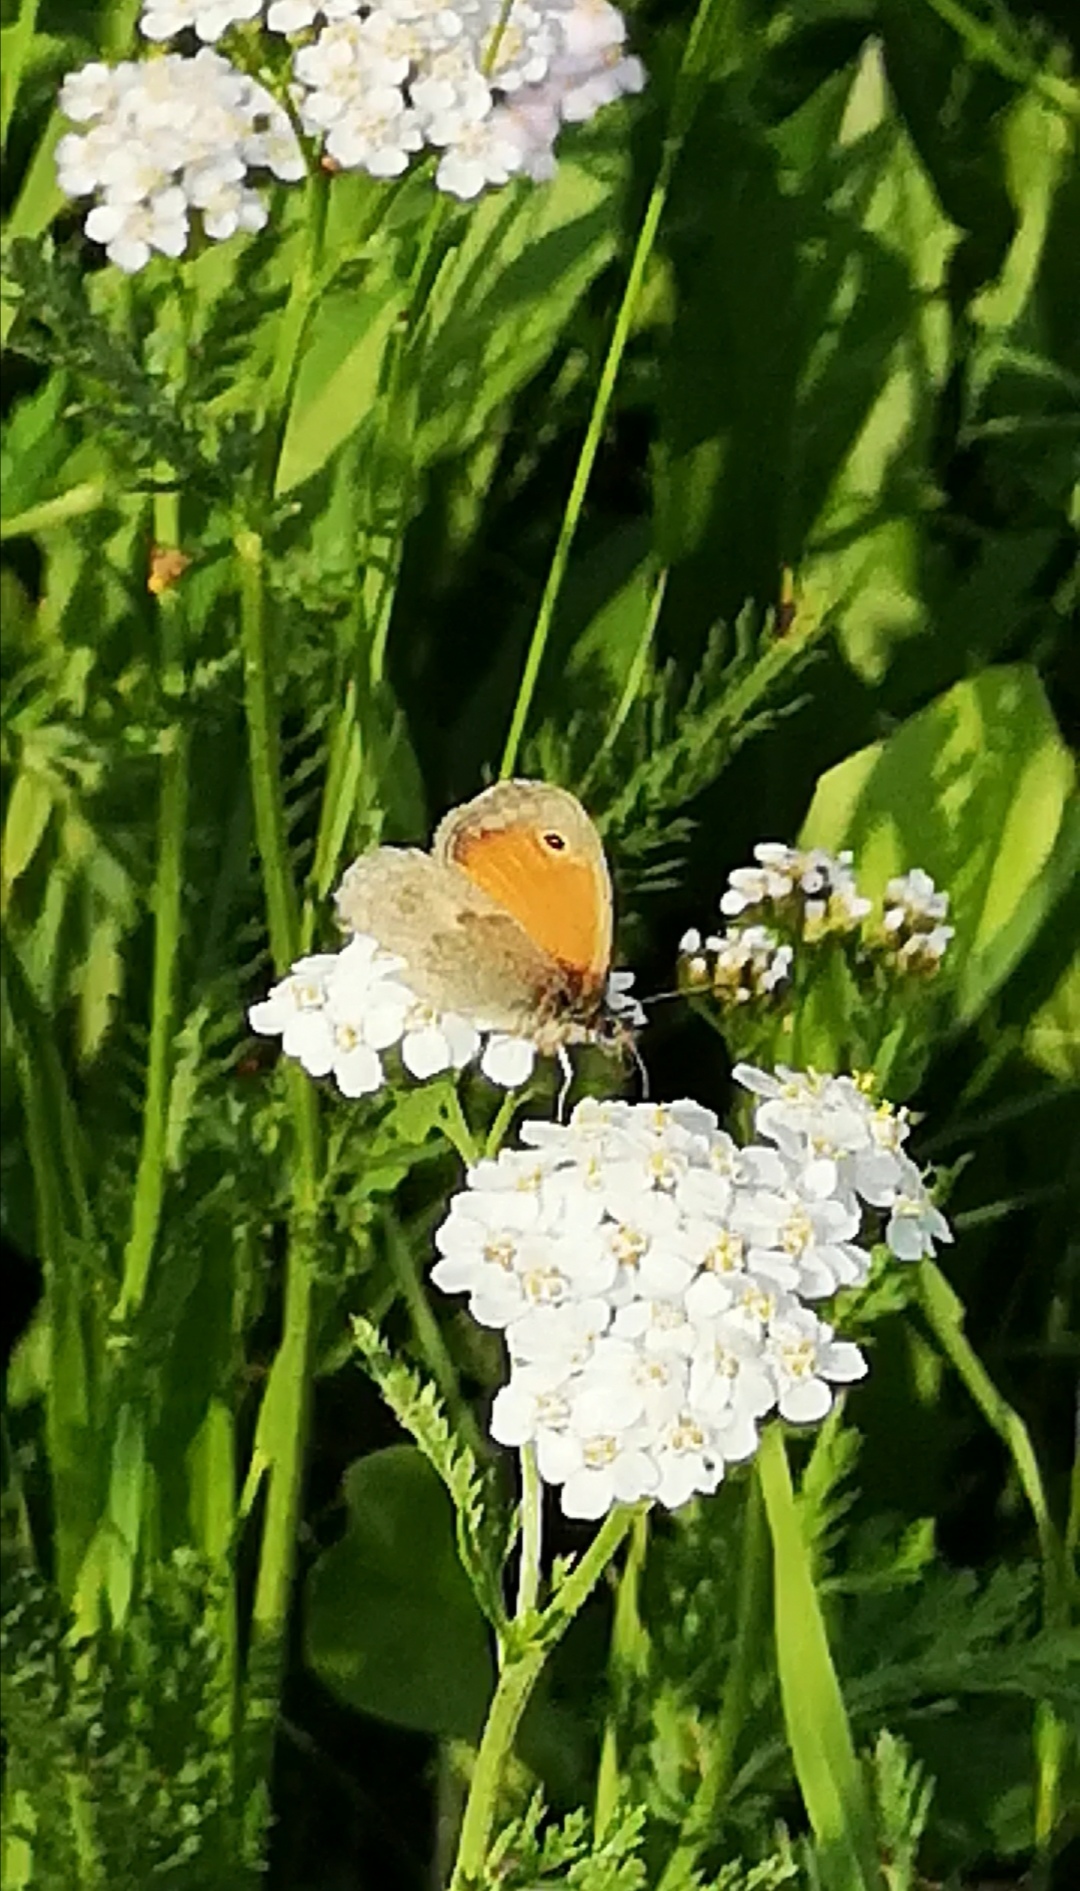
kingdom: Animalia
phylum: Arthropoda
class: Insecta
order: Lepidoptera
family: Nymphalidae
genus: Coenonympha
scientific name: Coenonympha pamphilus
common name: Small heath
